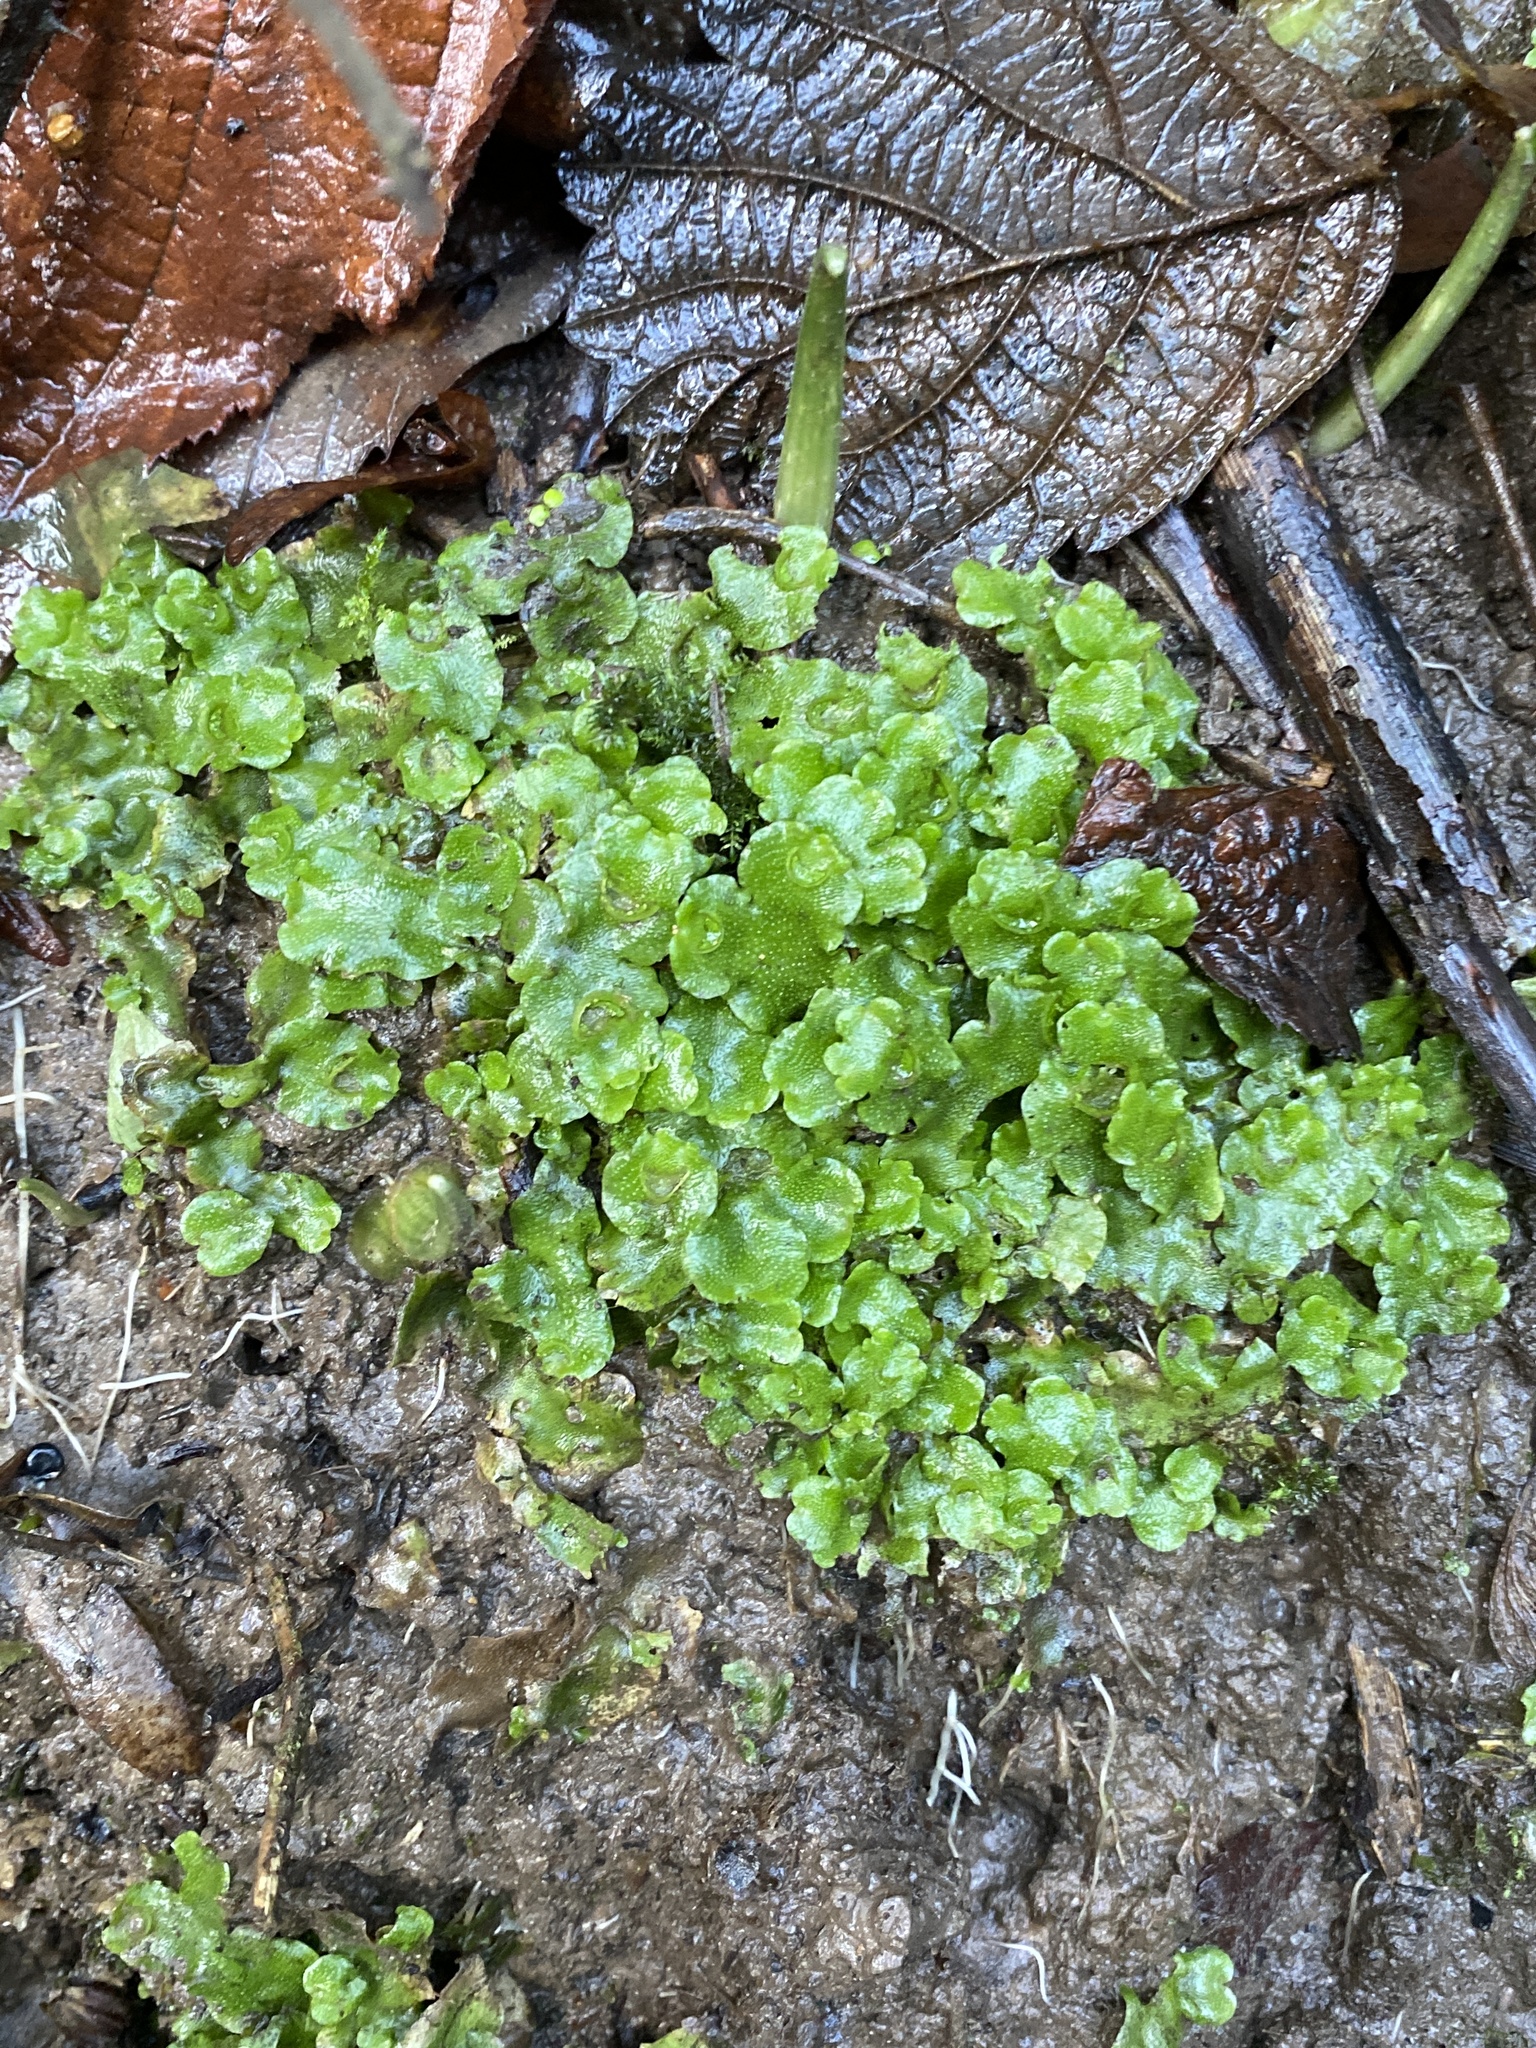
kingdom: Plantae
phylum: Marchantiophyta
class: Marchantiopsida
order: Lunulariales
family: Lunulariaceae
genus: Lunularia
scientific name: Lunularia cruciata
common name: Crescent-cup liverwort
